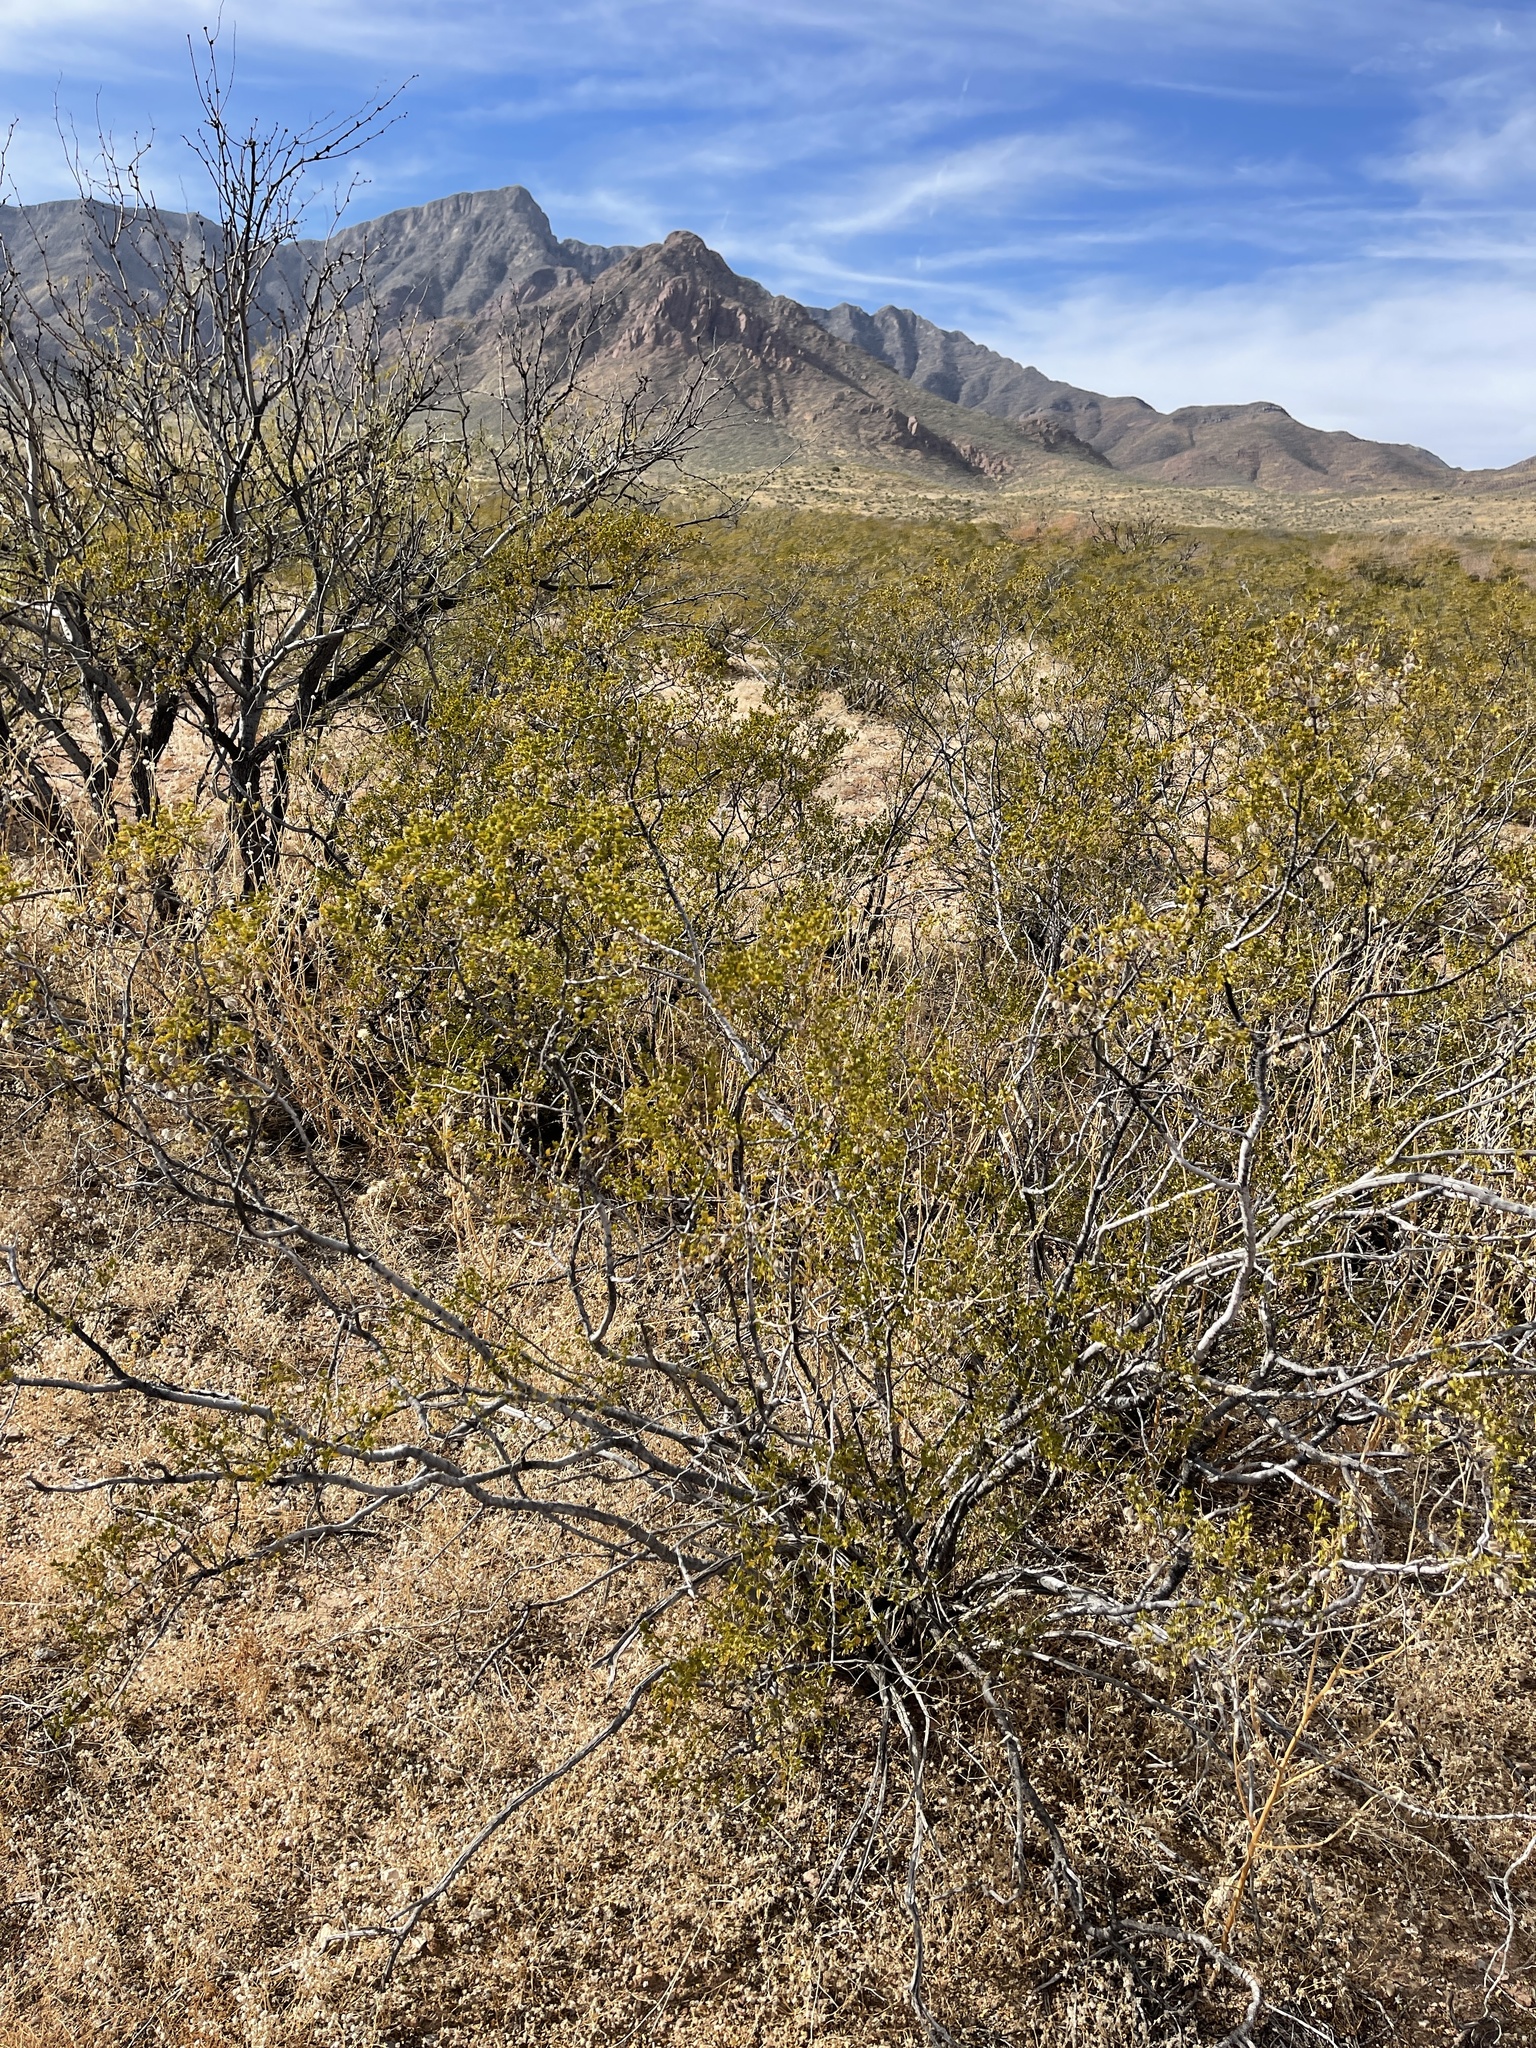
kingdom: Plantae
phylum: Tracheophyta
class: Magnoliopsida
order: Zygophyllales
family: Zygophyllaceae
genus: Larrea
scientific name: Larrea tridentata
